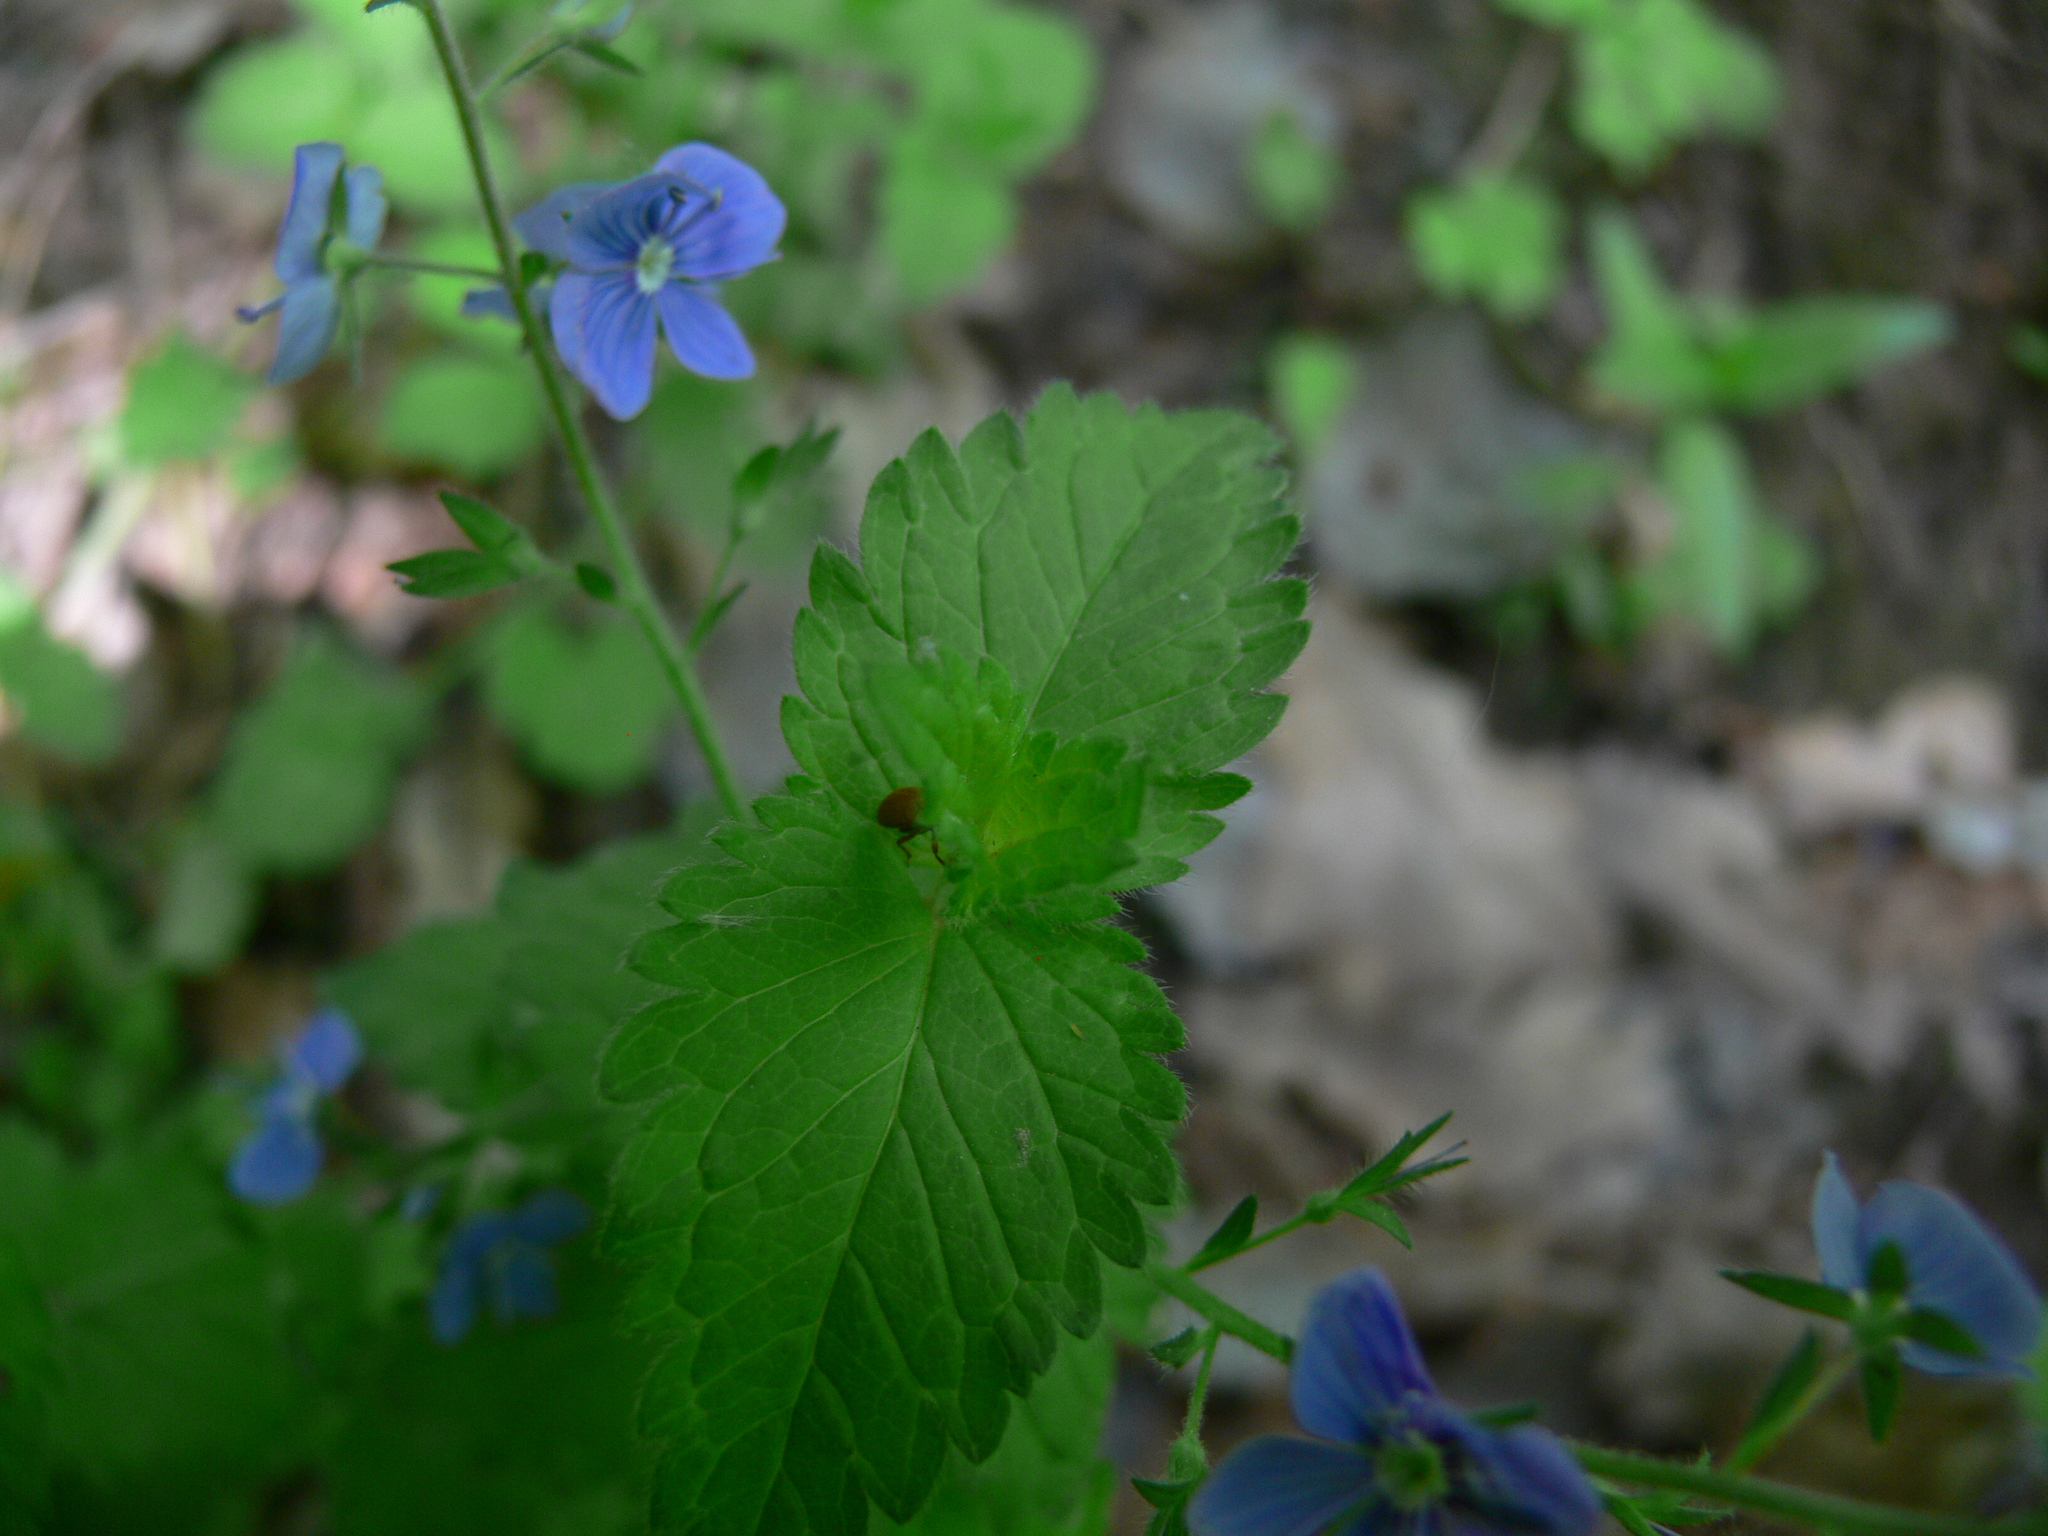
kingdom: Plantae
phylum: Tracheophyta
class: Magnoliopsida
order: Lamiales
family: Plantaginaceae
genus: Veronica
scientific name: Veronica chamaedrys
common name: Germander speedwell
